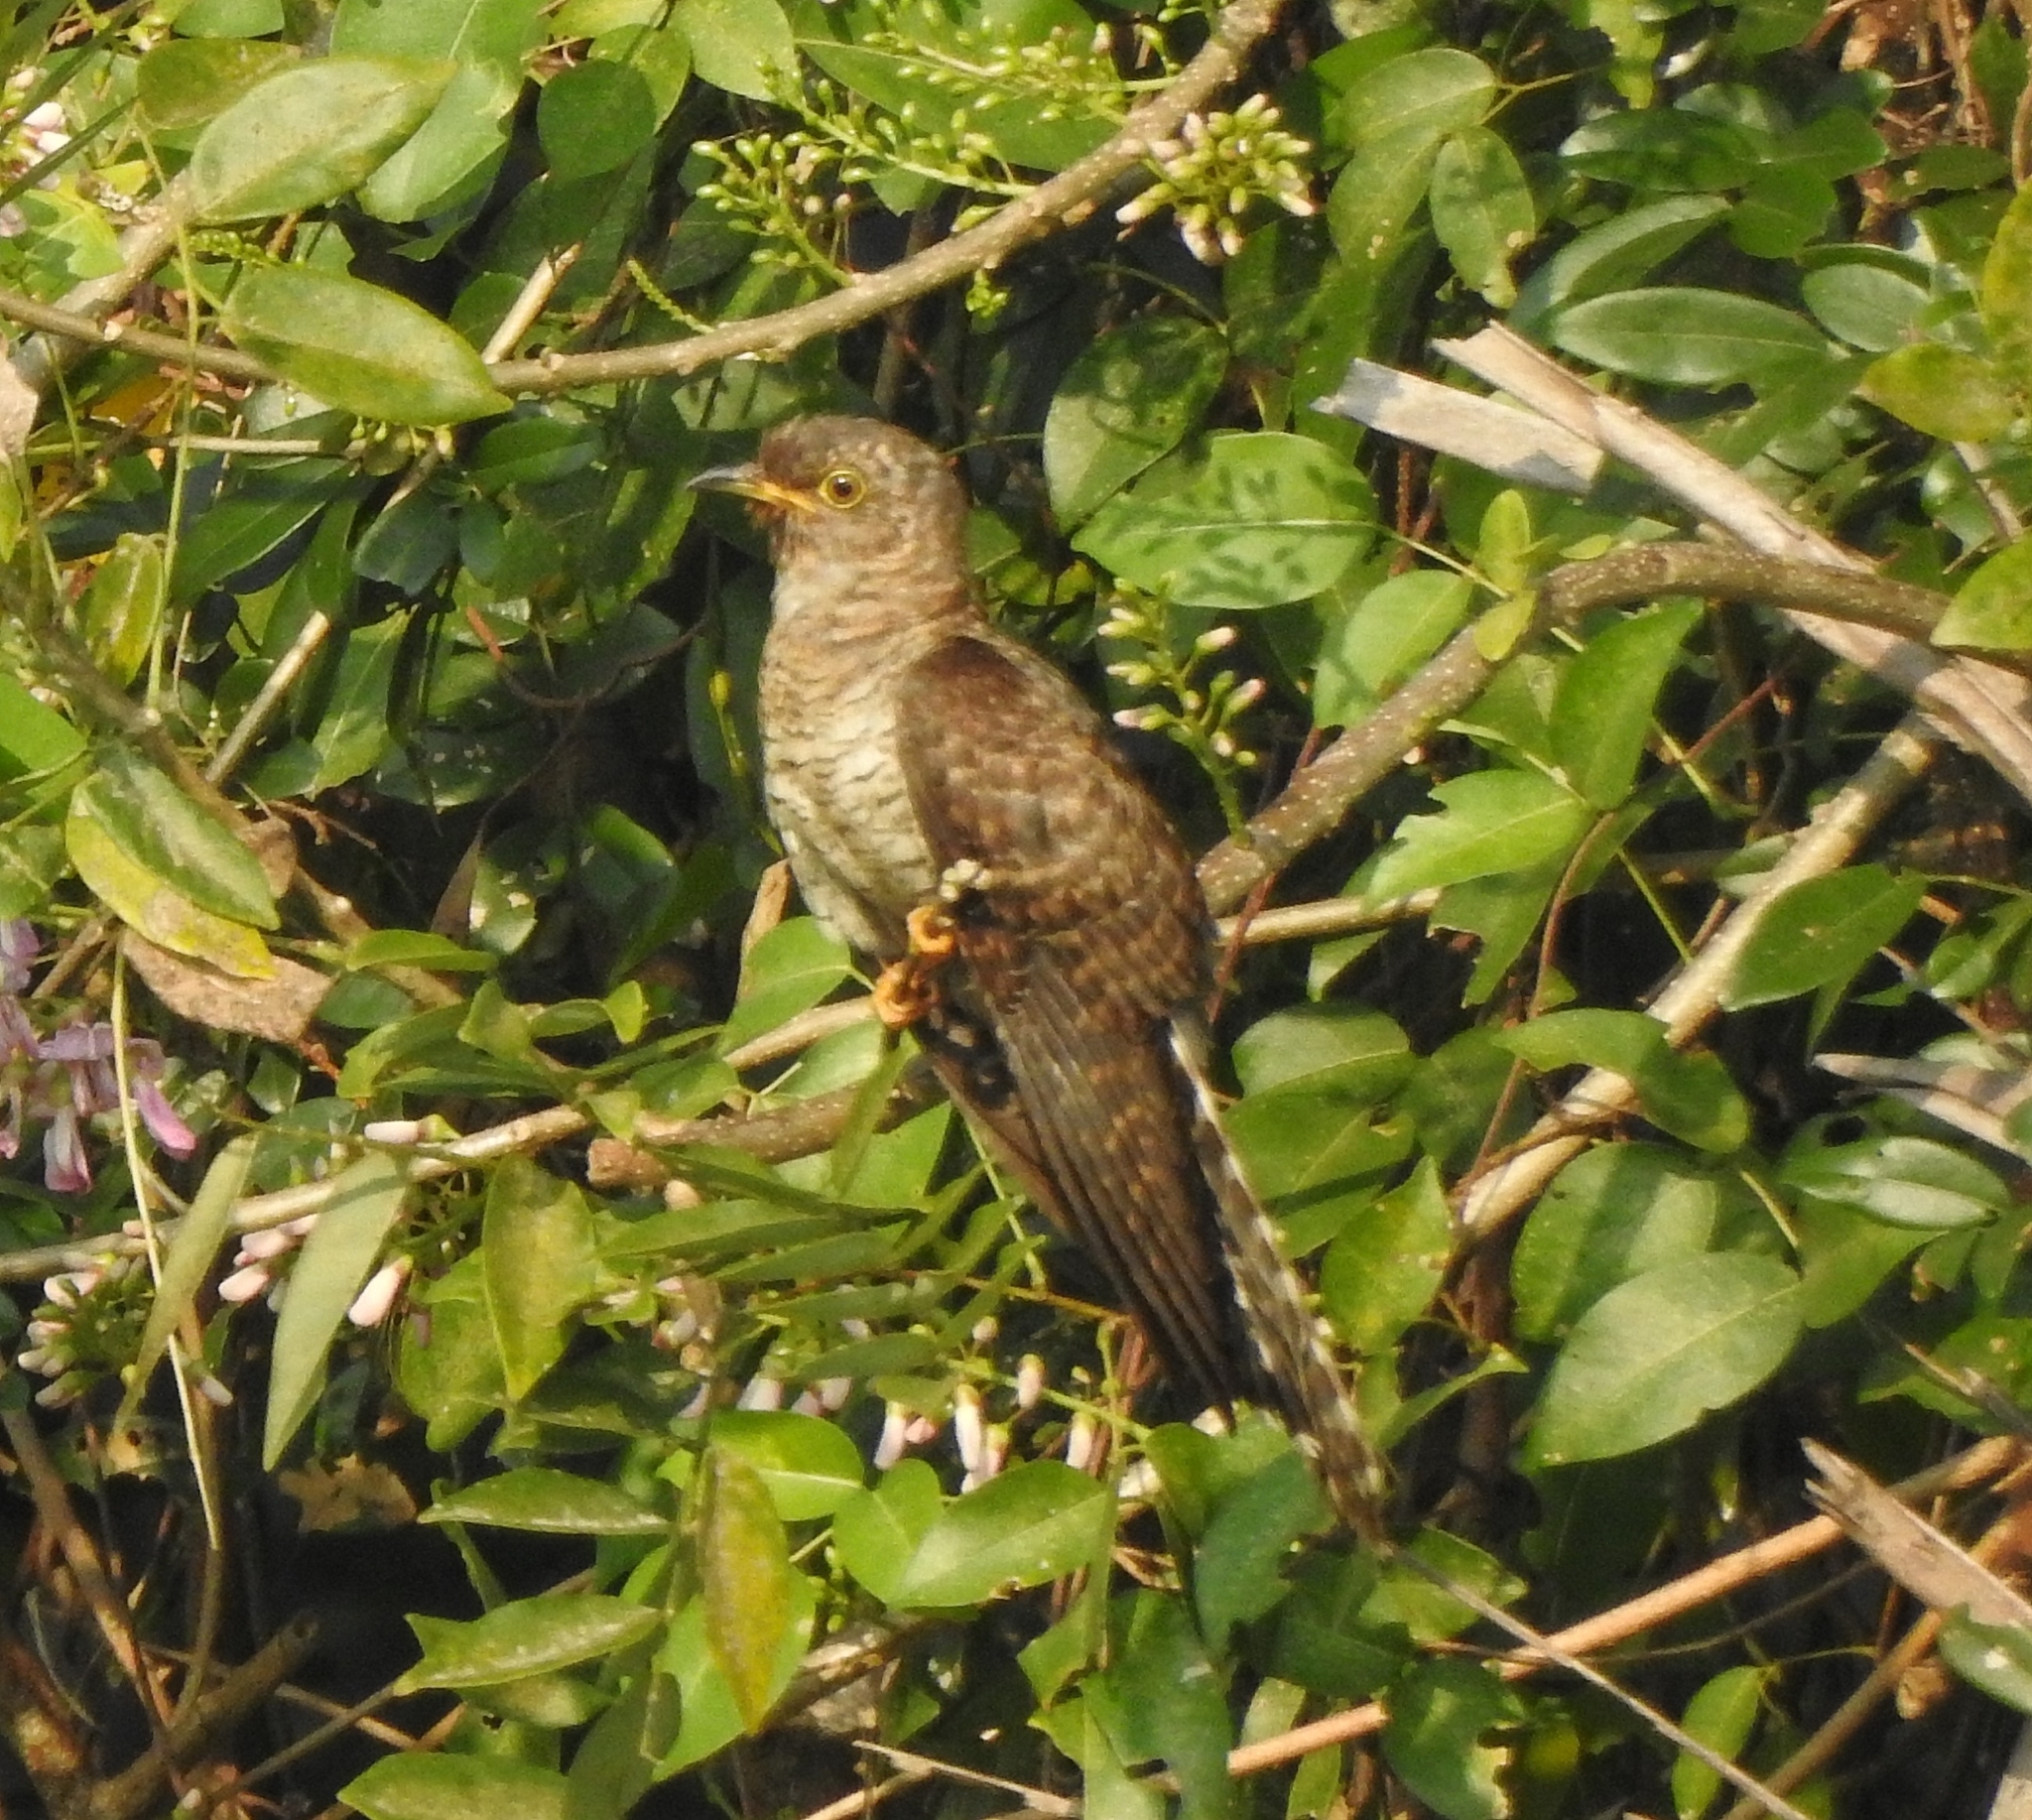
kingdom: Animalia
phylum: Chordata
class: Aves
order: Cuculiformes
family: Cuculidae
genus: Cuculus
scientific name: Cuculus canorus
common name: Common cuckoo
